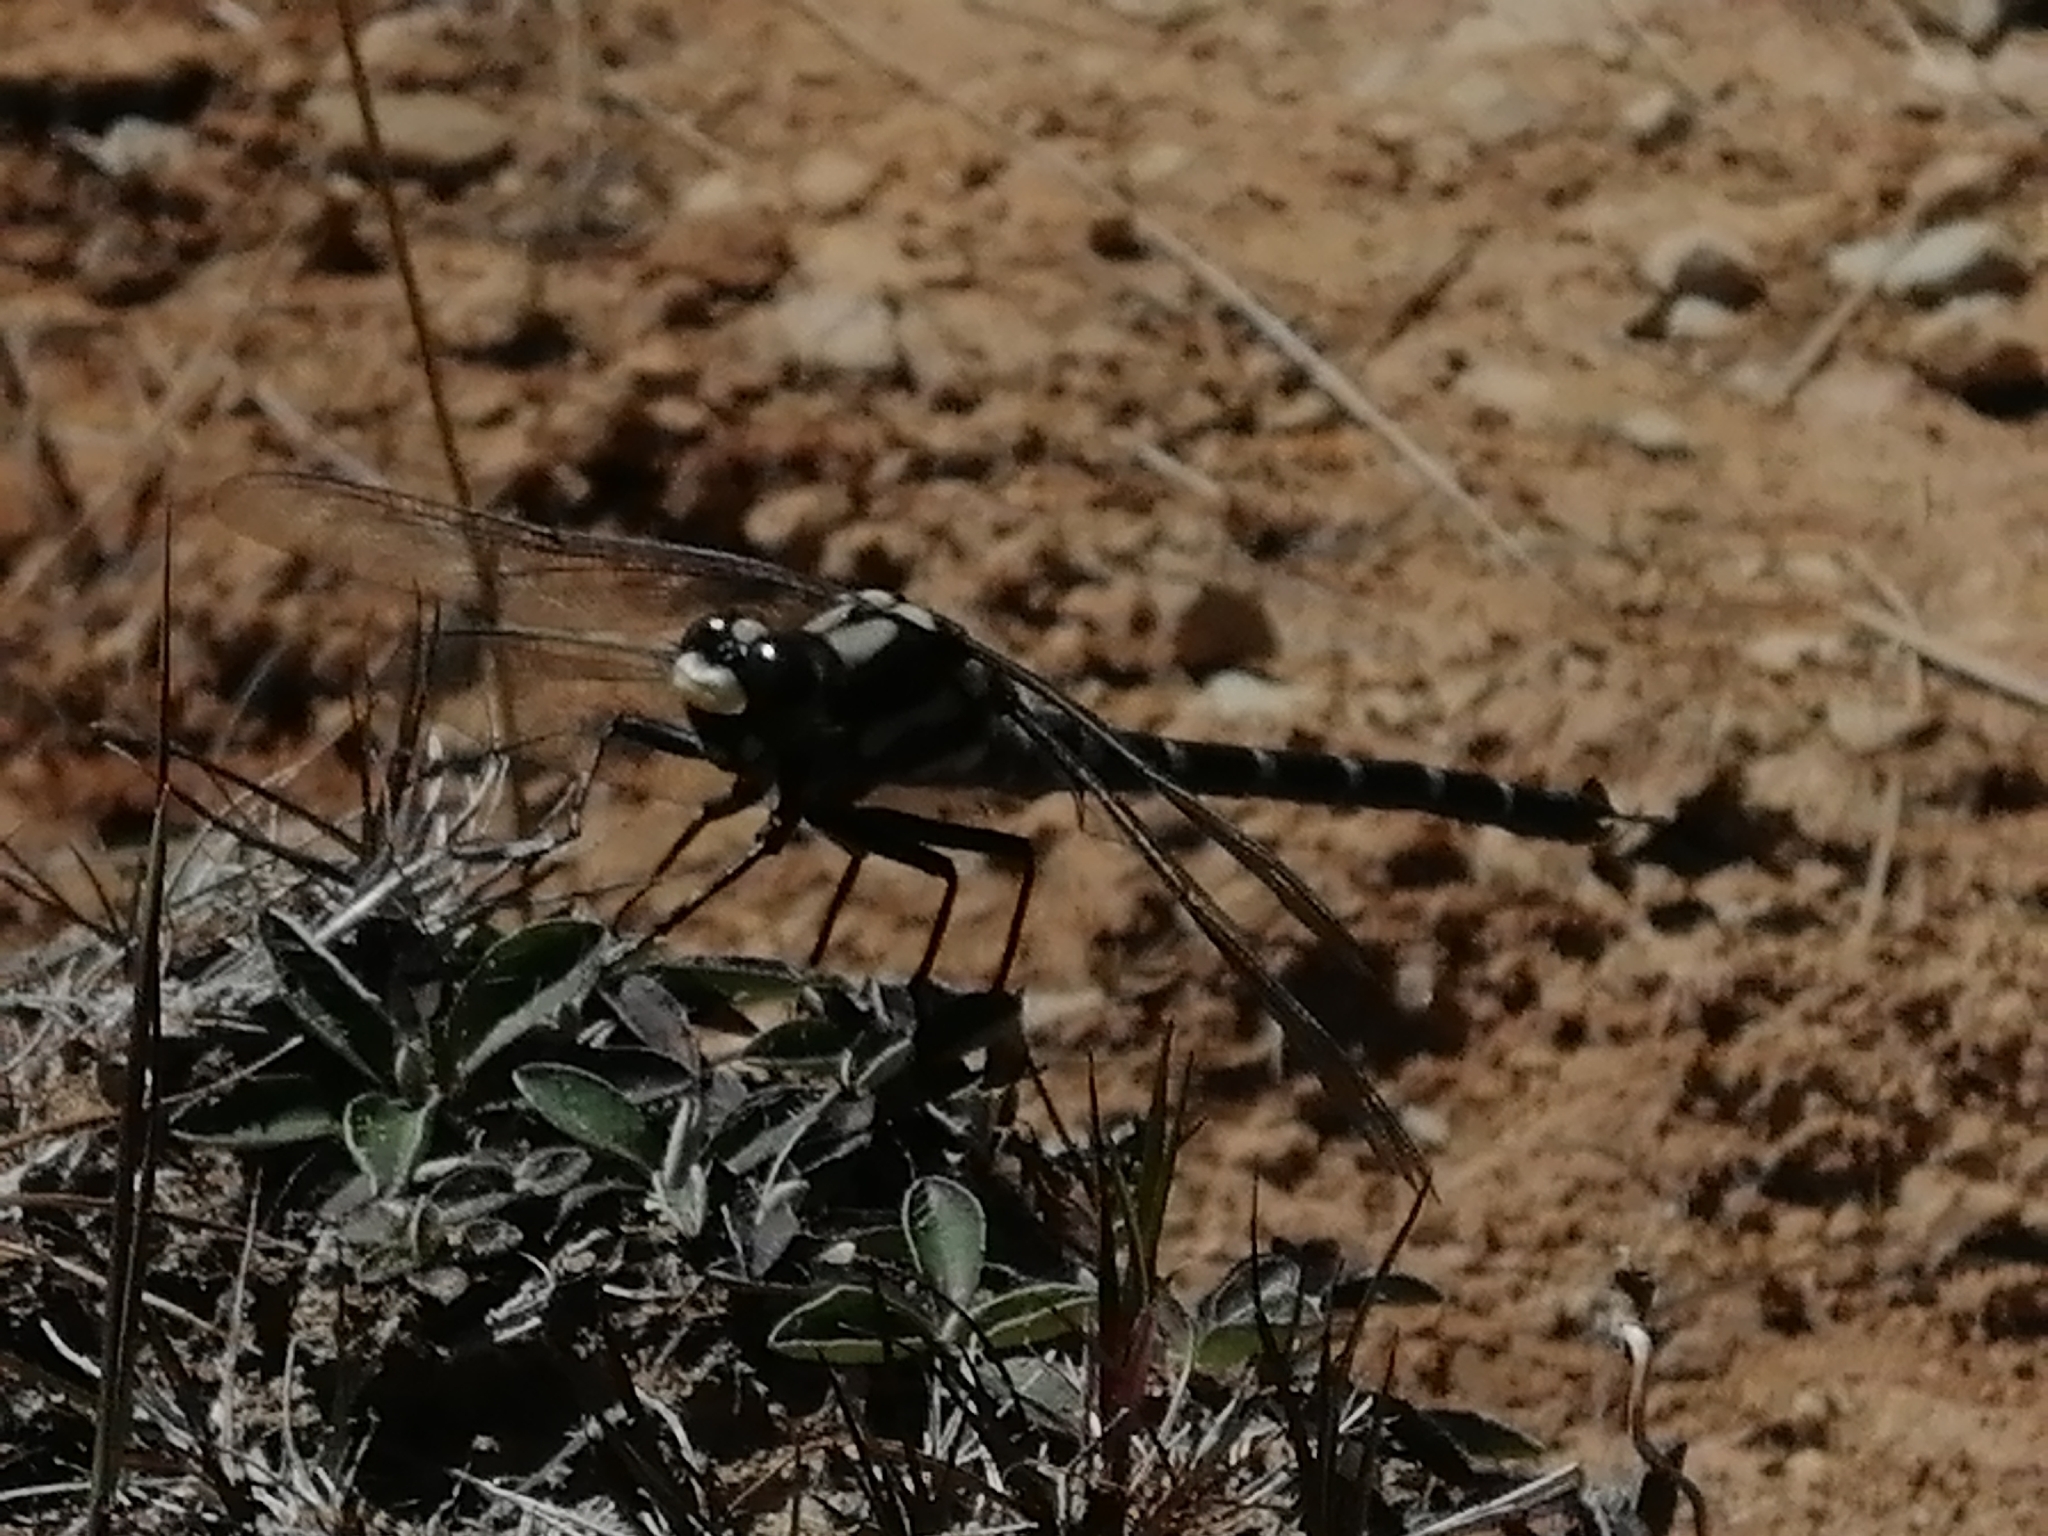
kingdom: Animalia
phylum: Arthropoda
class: Insecta
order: Odonata
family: Petaluridae
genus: Uropetala
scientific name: Uropetala chiltoni
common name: Mountain giant dragonfly
